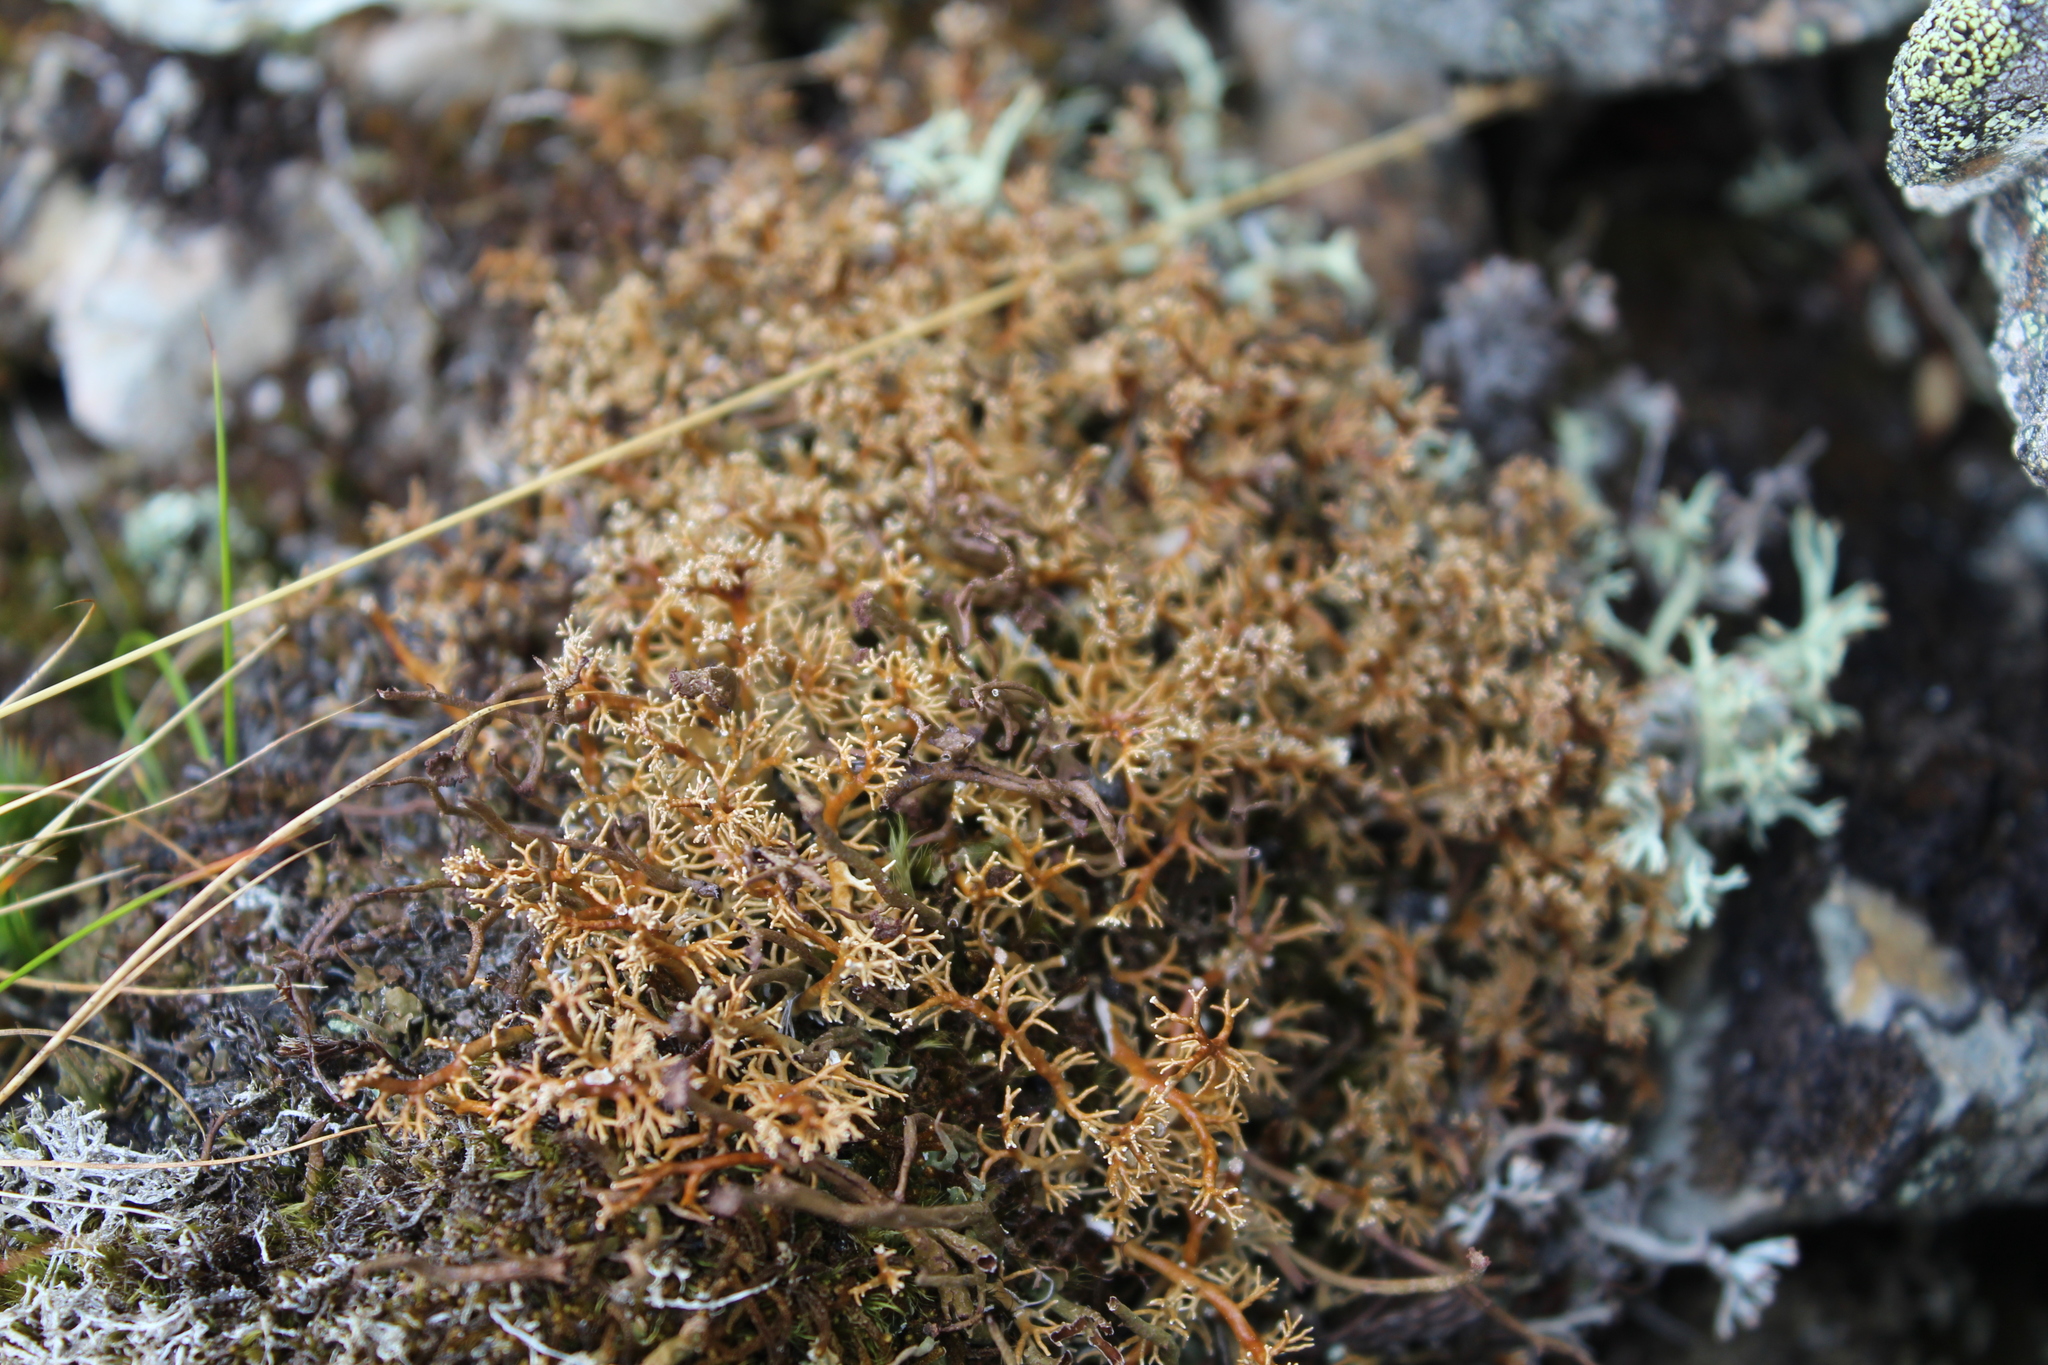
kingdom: Fungi
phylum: Ascomycota
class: Lecanoromycetes
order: Lecanorales
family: Sphaerophoraceae
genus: Sphaerophorus
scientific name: Sphaerophorus globosus
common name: Globe ball lichen
